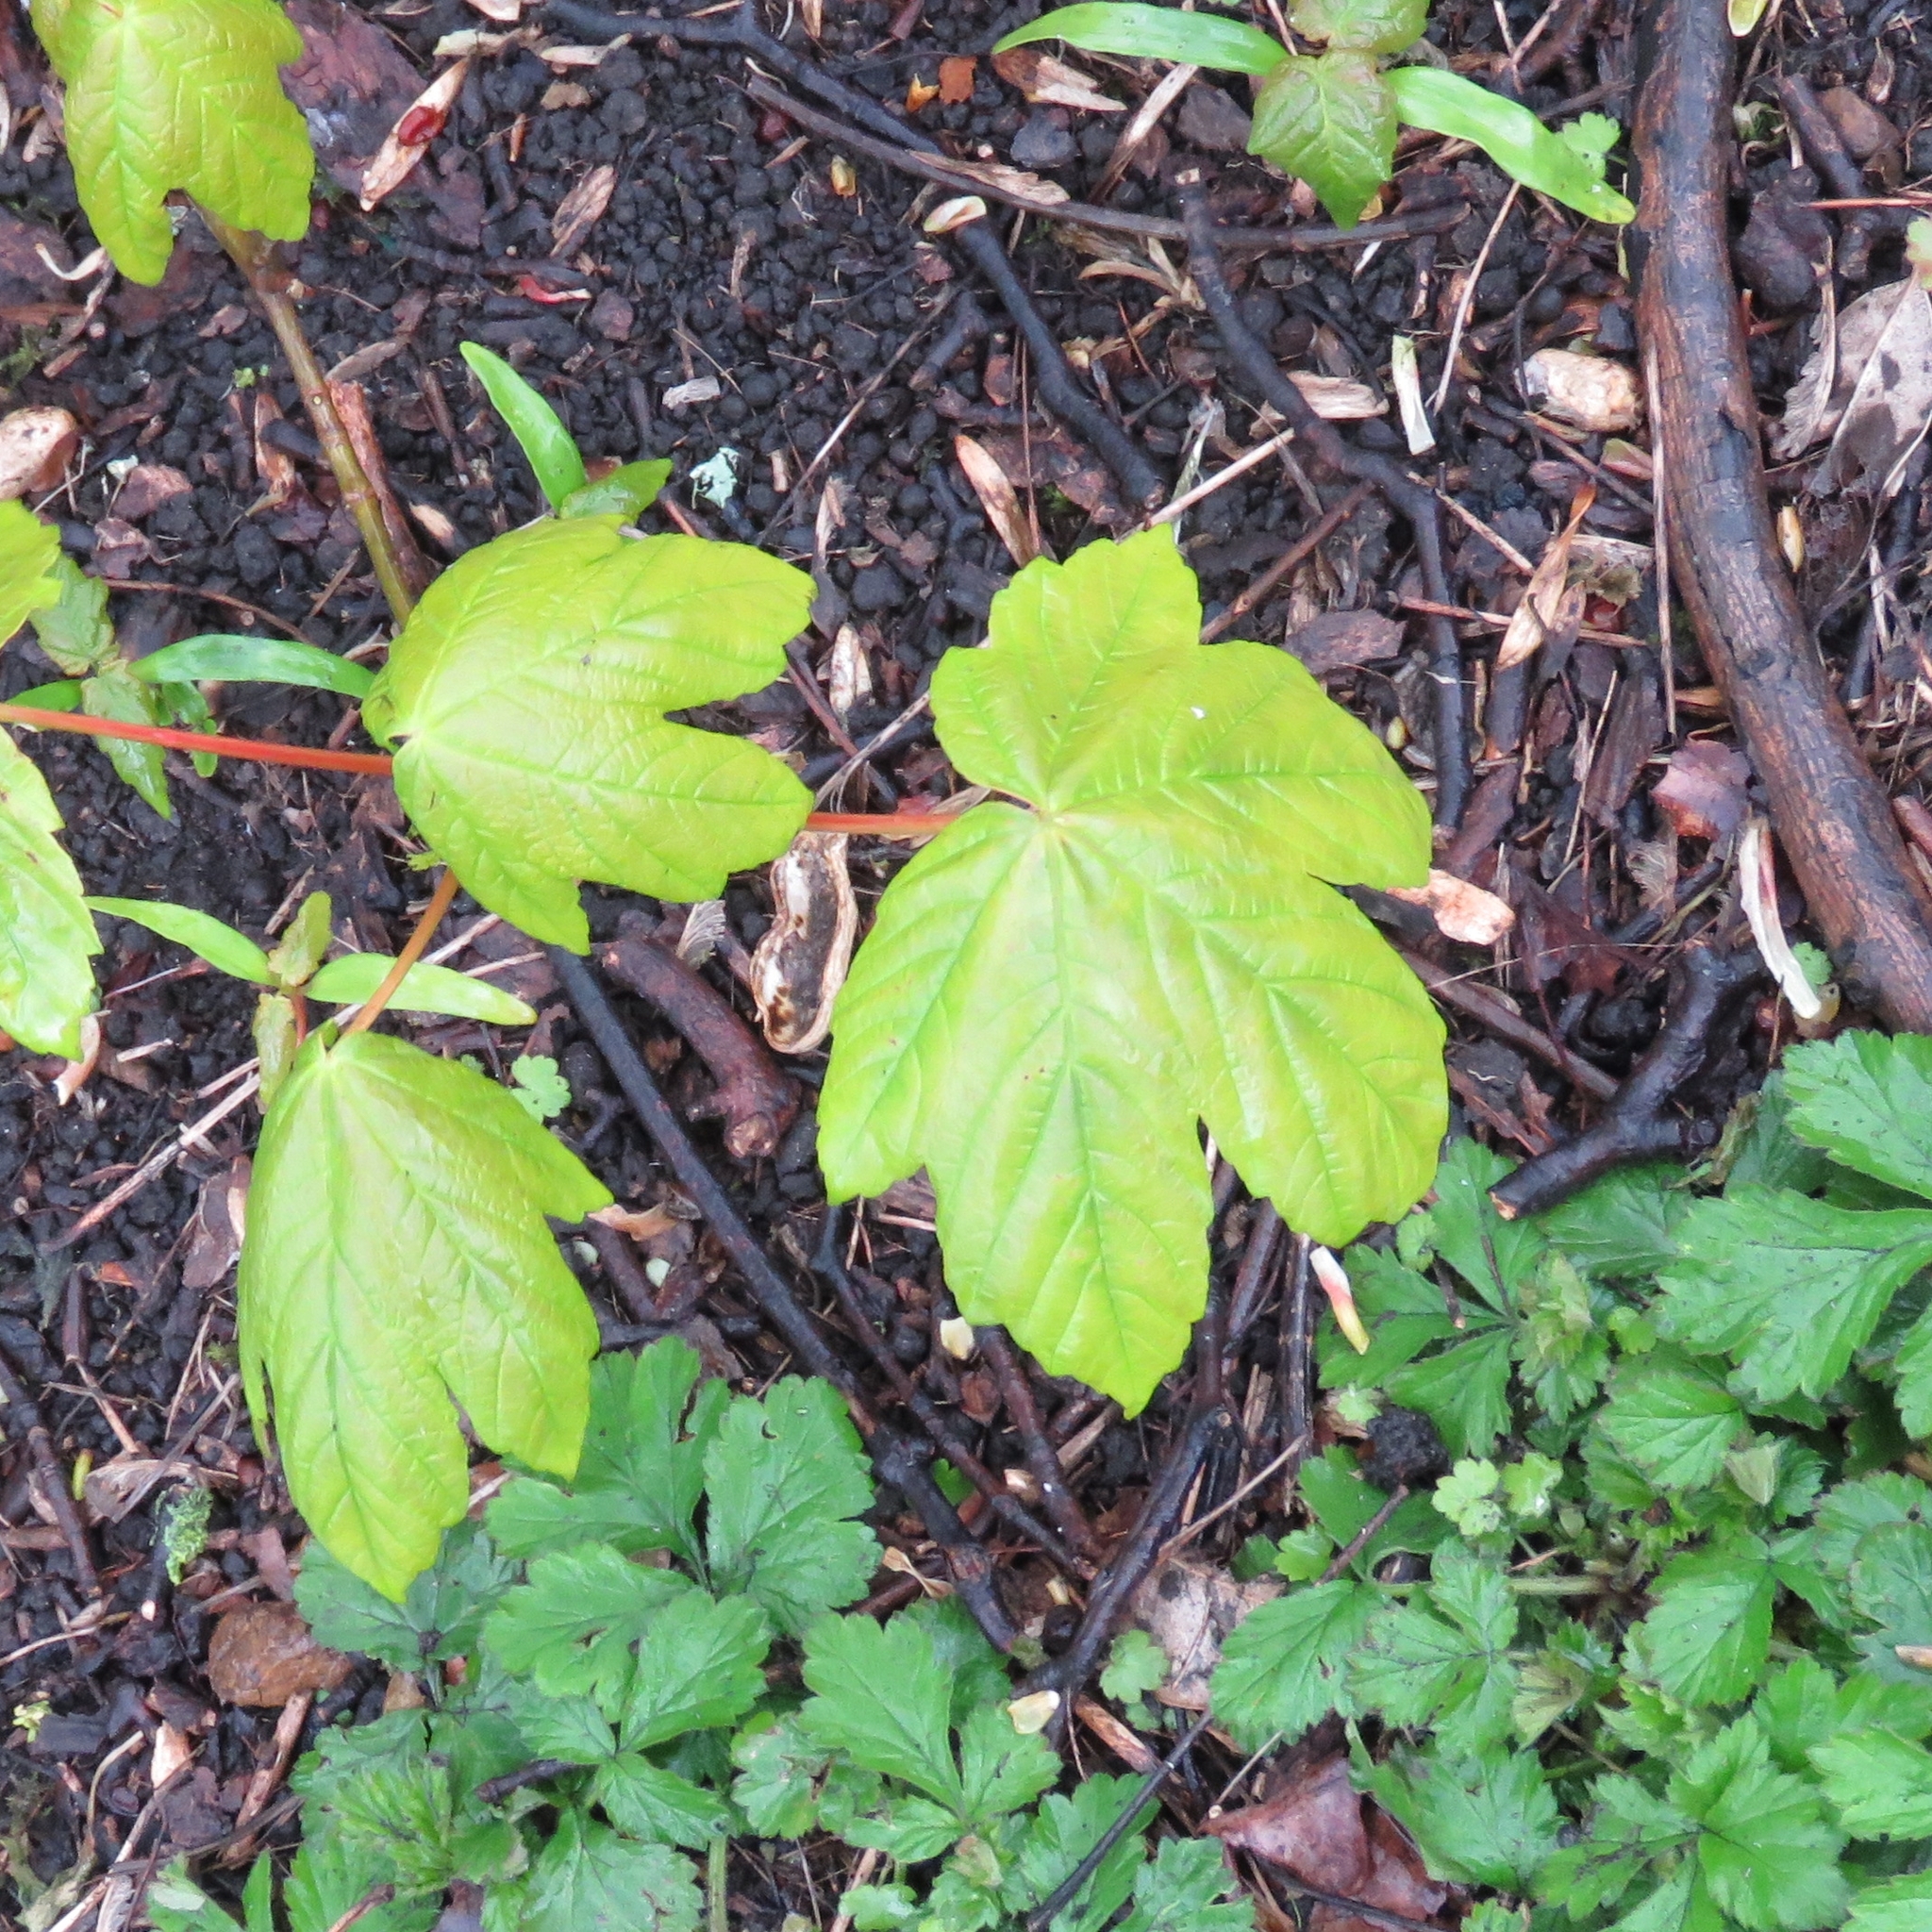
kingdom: Plantae
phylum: Tracheophyta
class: Magnoliopsida
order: Sapindales
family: Sapindaceae
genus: Acer
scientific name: Acer pseudoplatanus
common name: Sycamore
